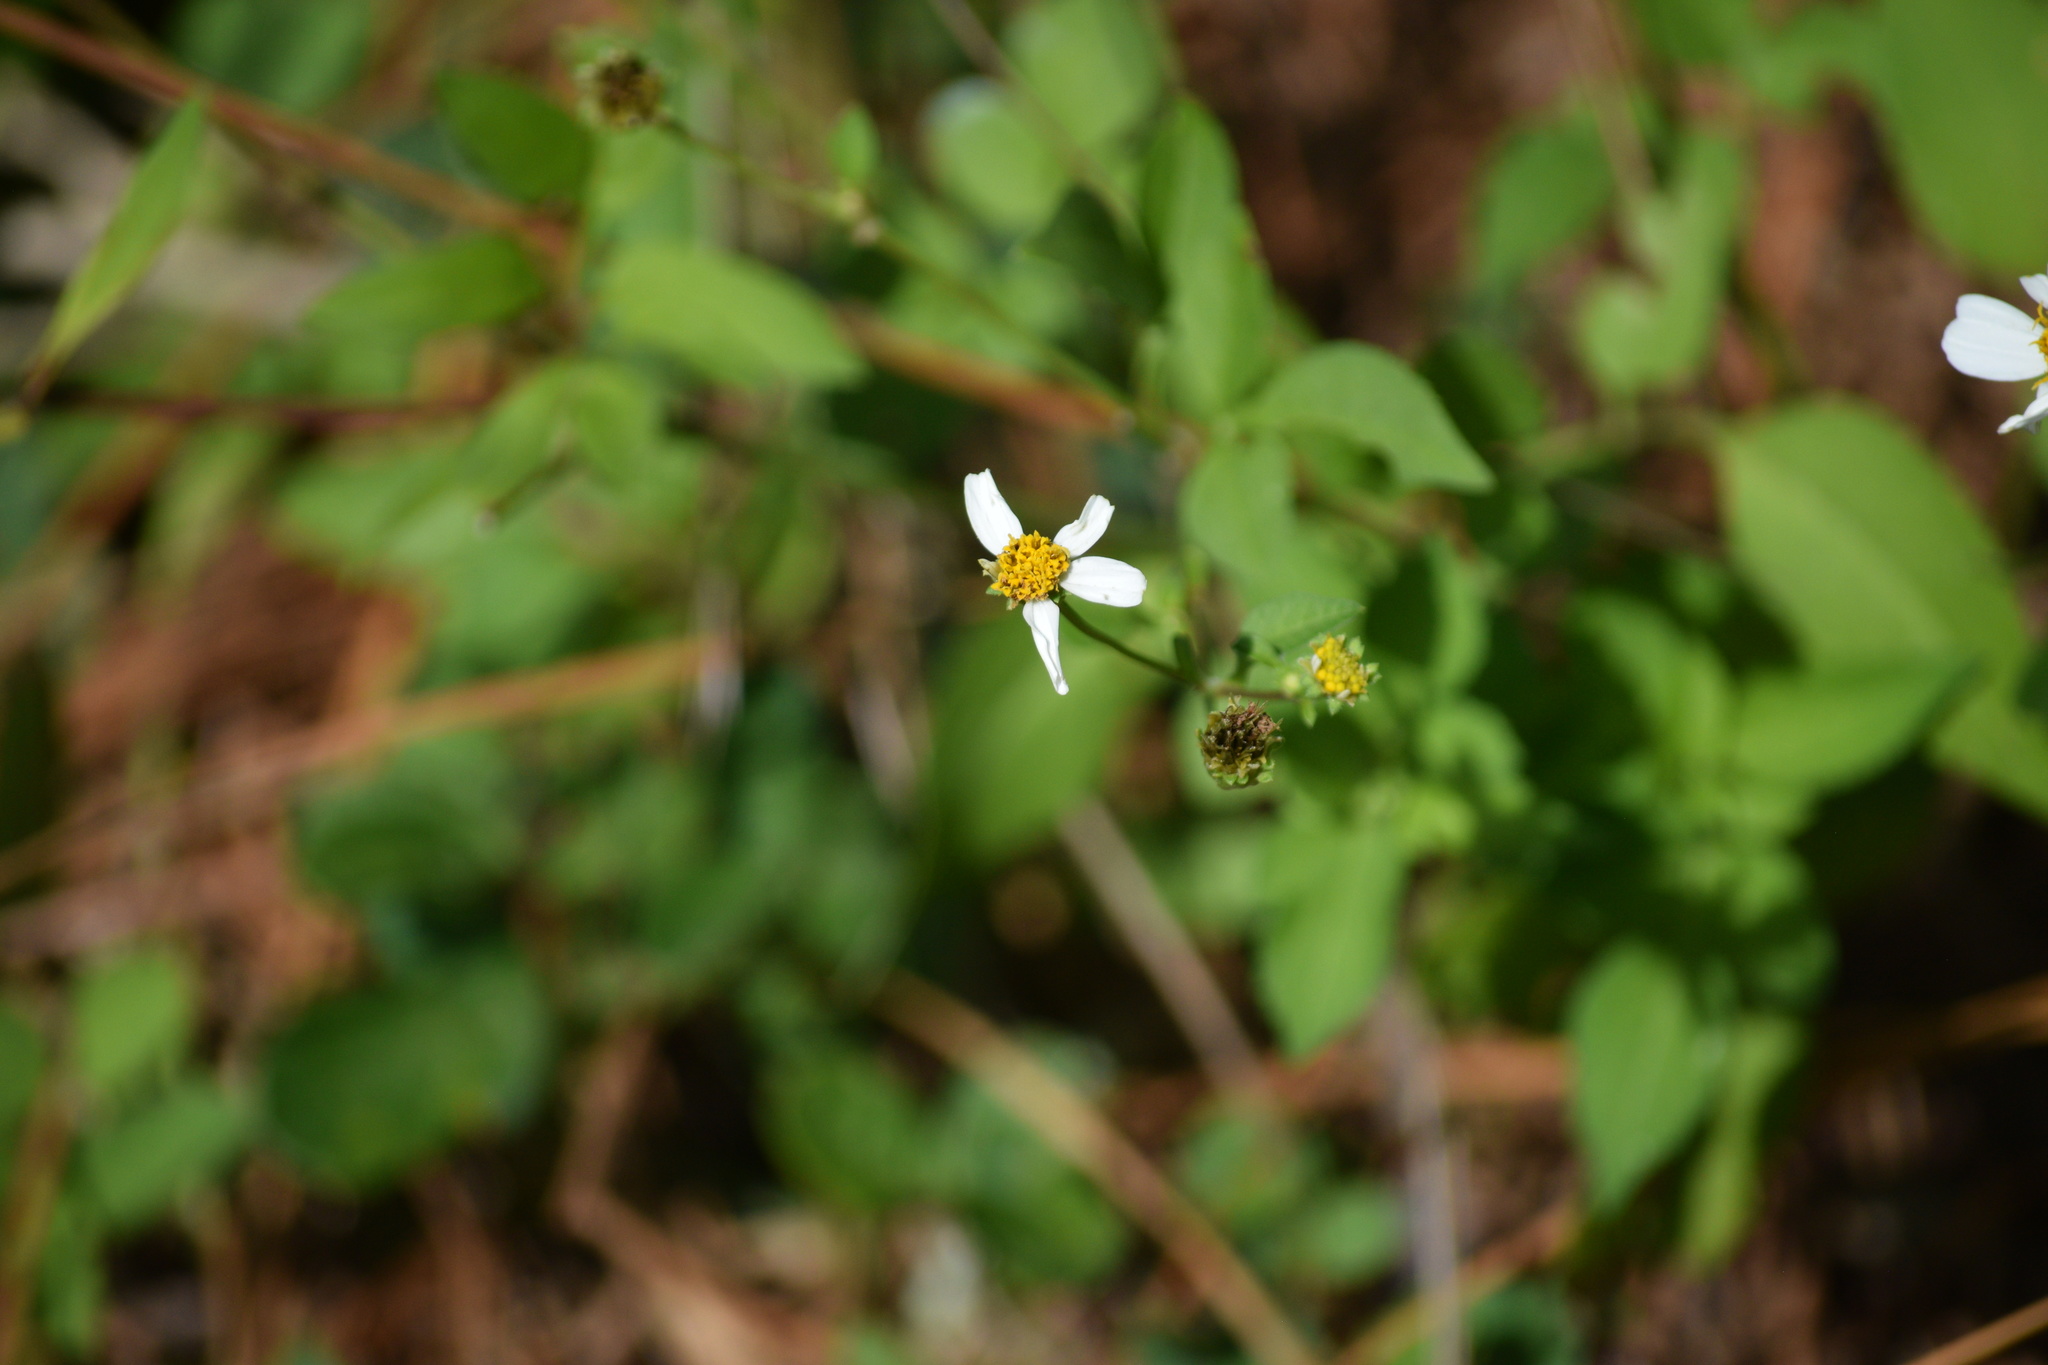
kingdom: Plantae
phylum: Tracheophyta
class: Magnoliopsida
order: Asterales
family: Asteraceae
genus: Bidens
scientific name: Bidens alba
